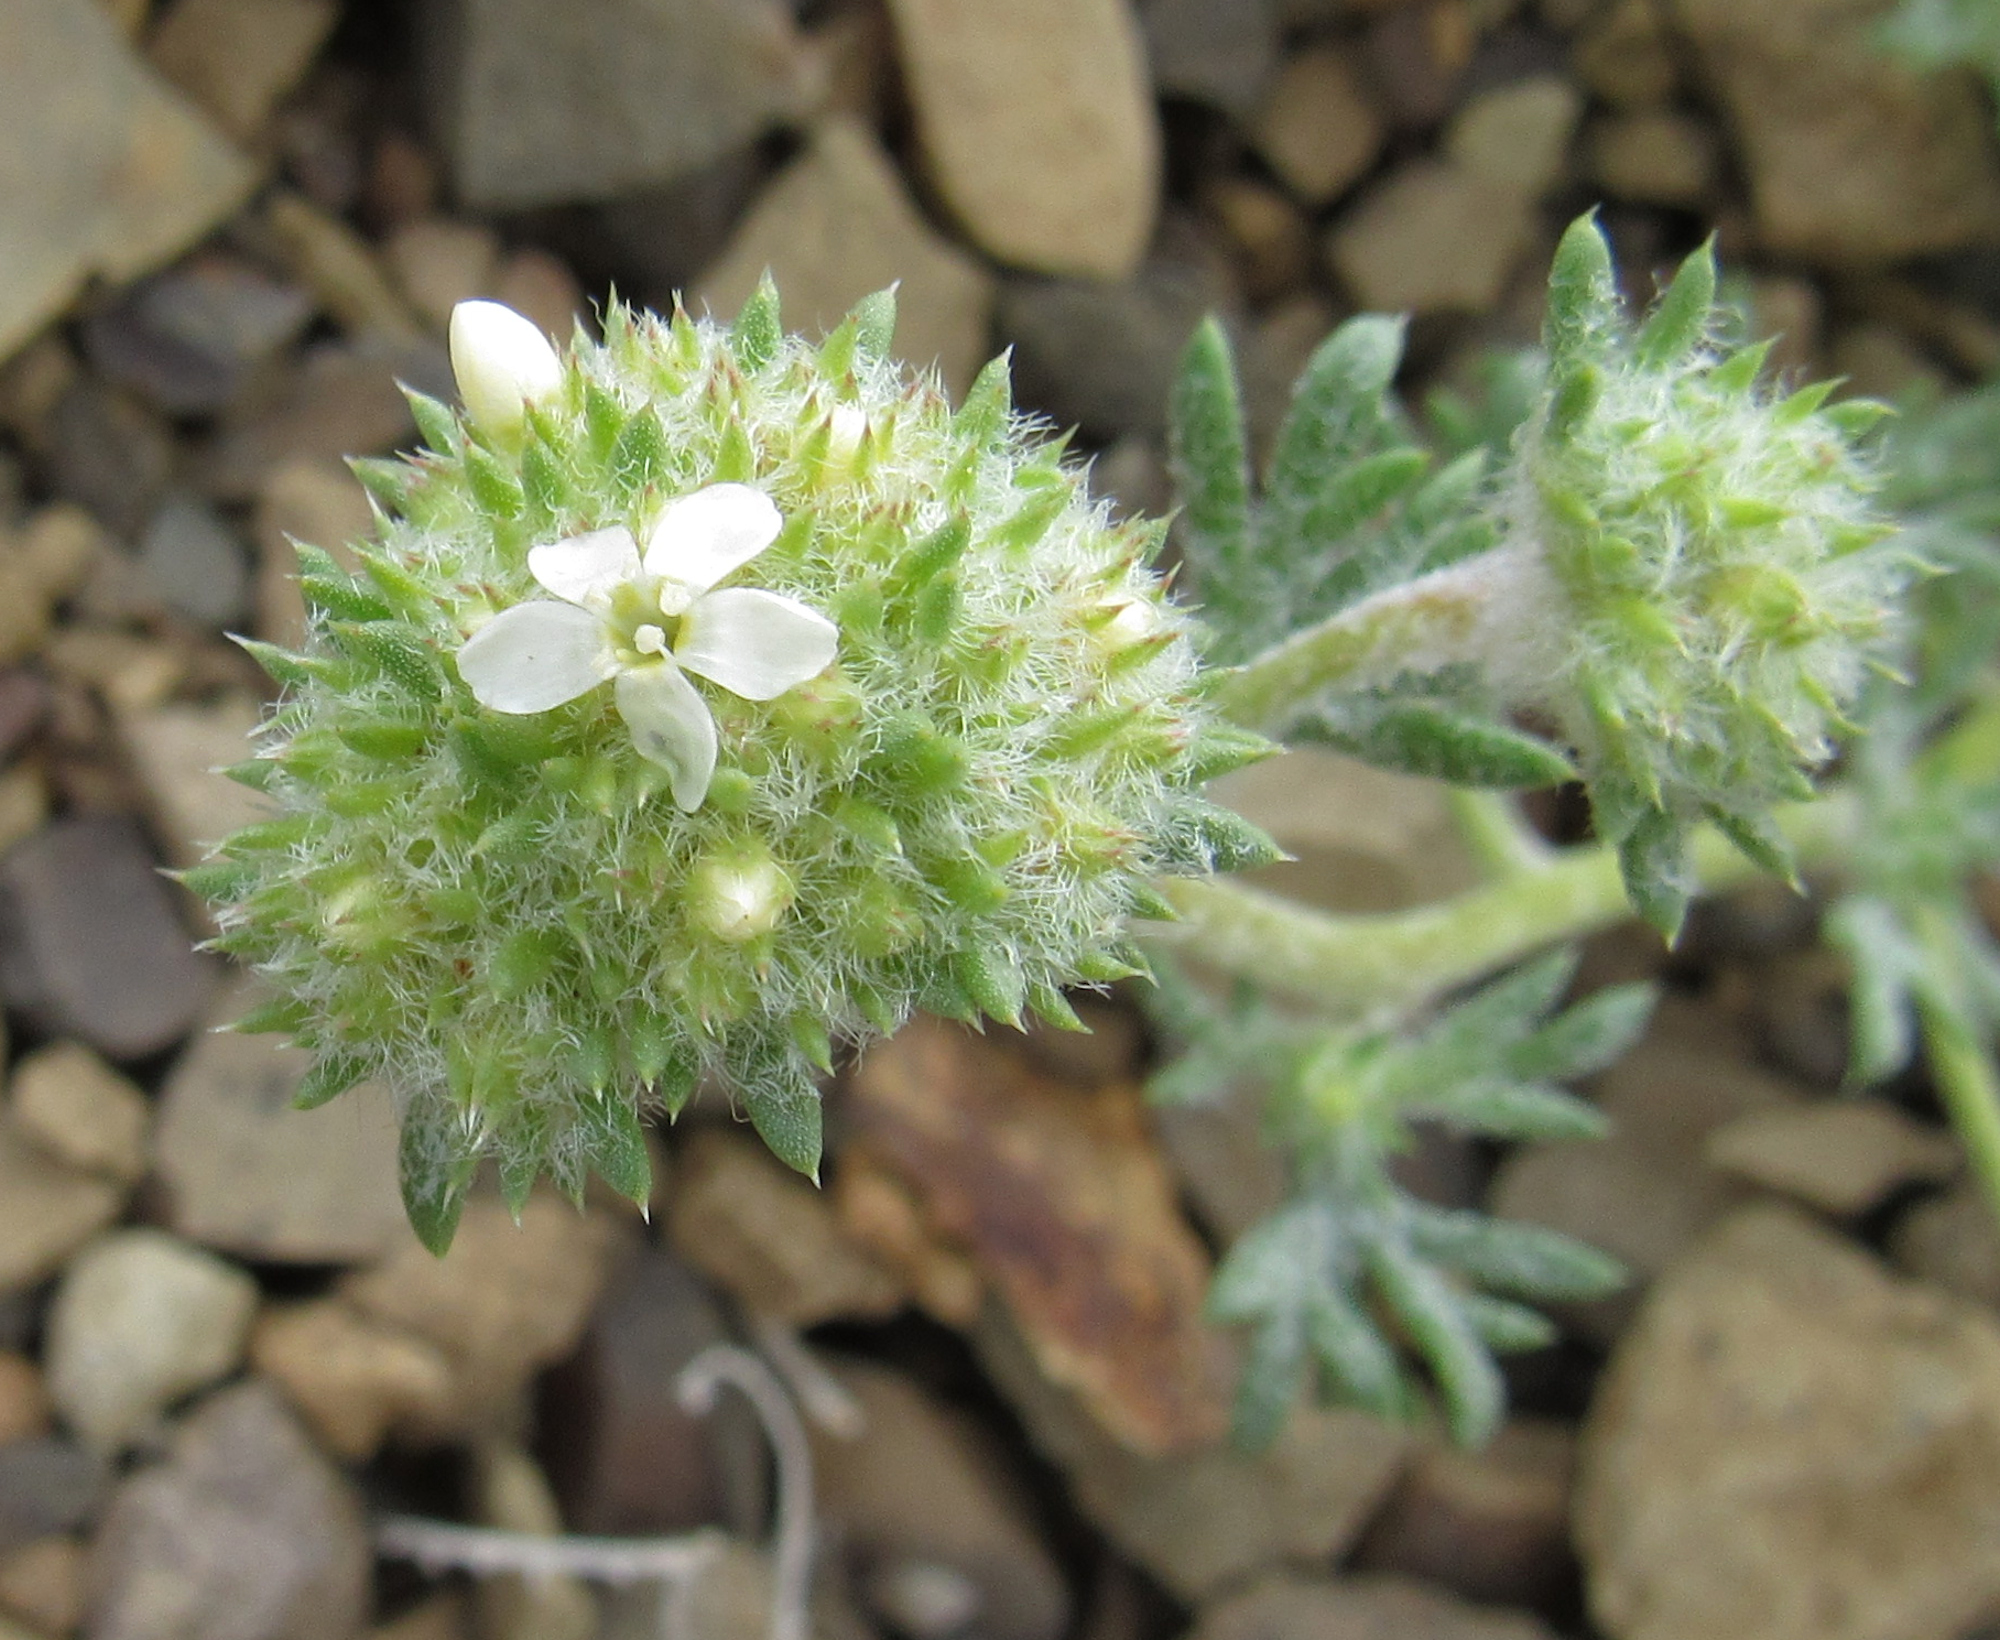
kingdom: Plantae
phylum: Tracheophyta
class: Magnoliopsida
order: Ericales
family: Polemoniaceae
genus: Ipomopsis
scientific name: Ipomopsis congesta
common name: Ball-head gilia
